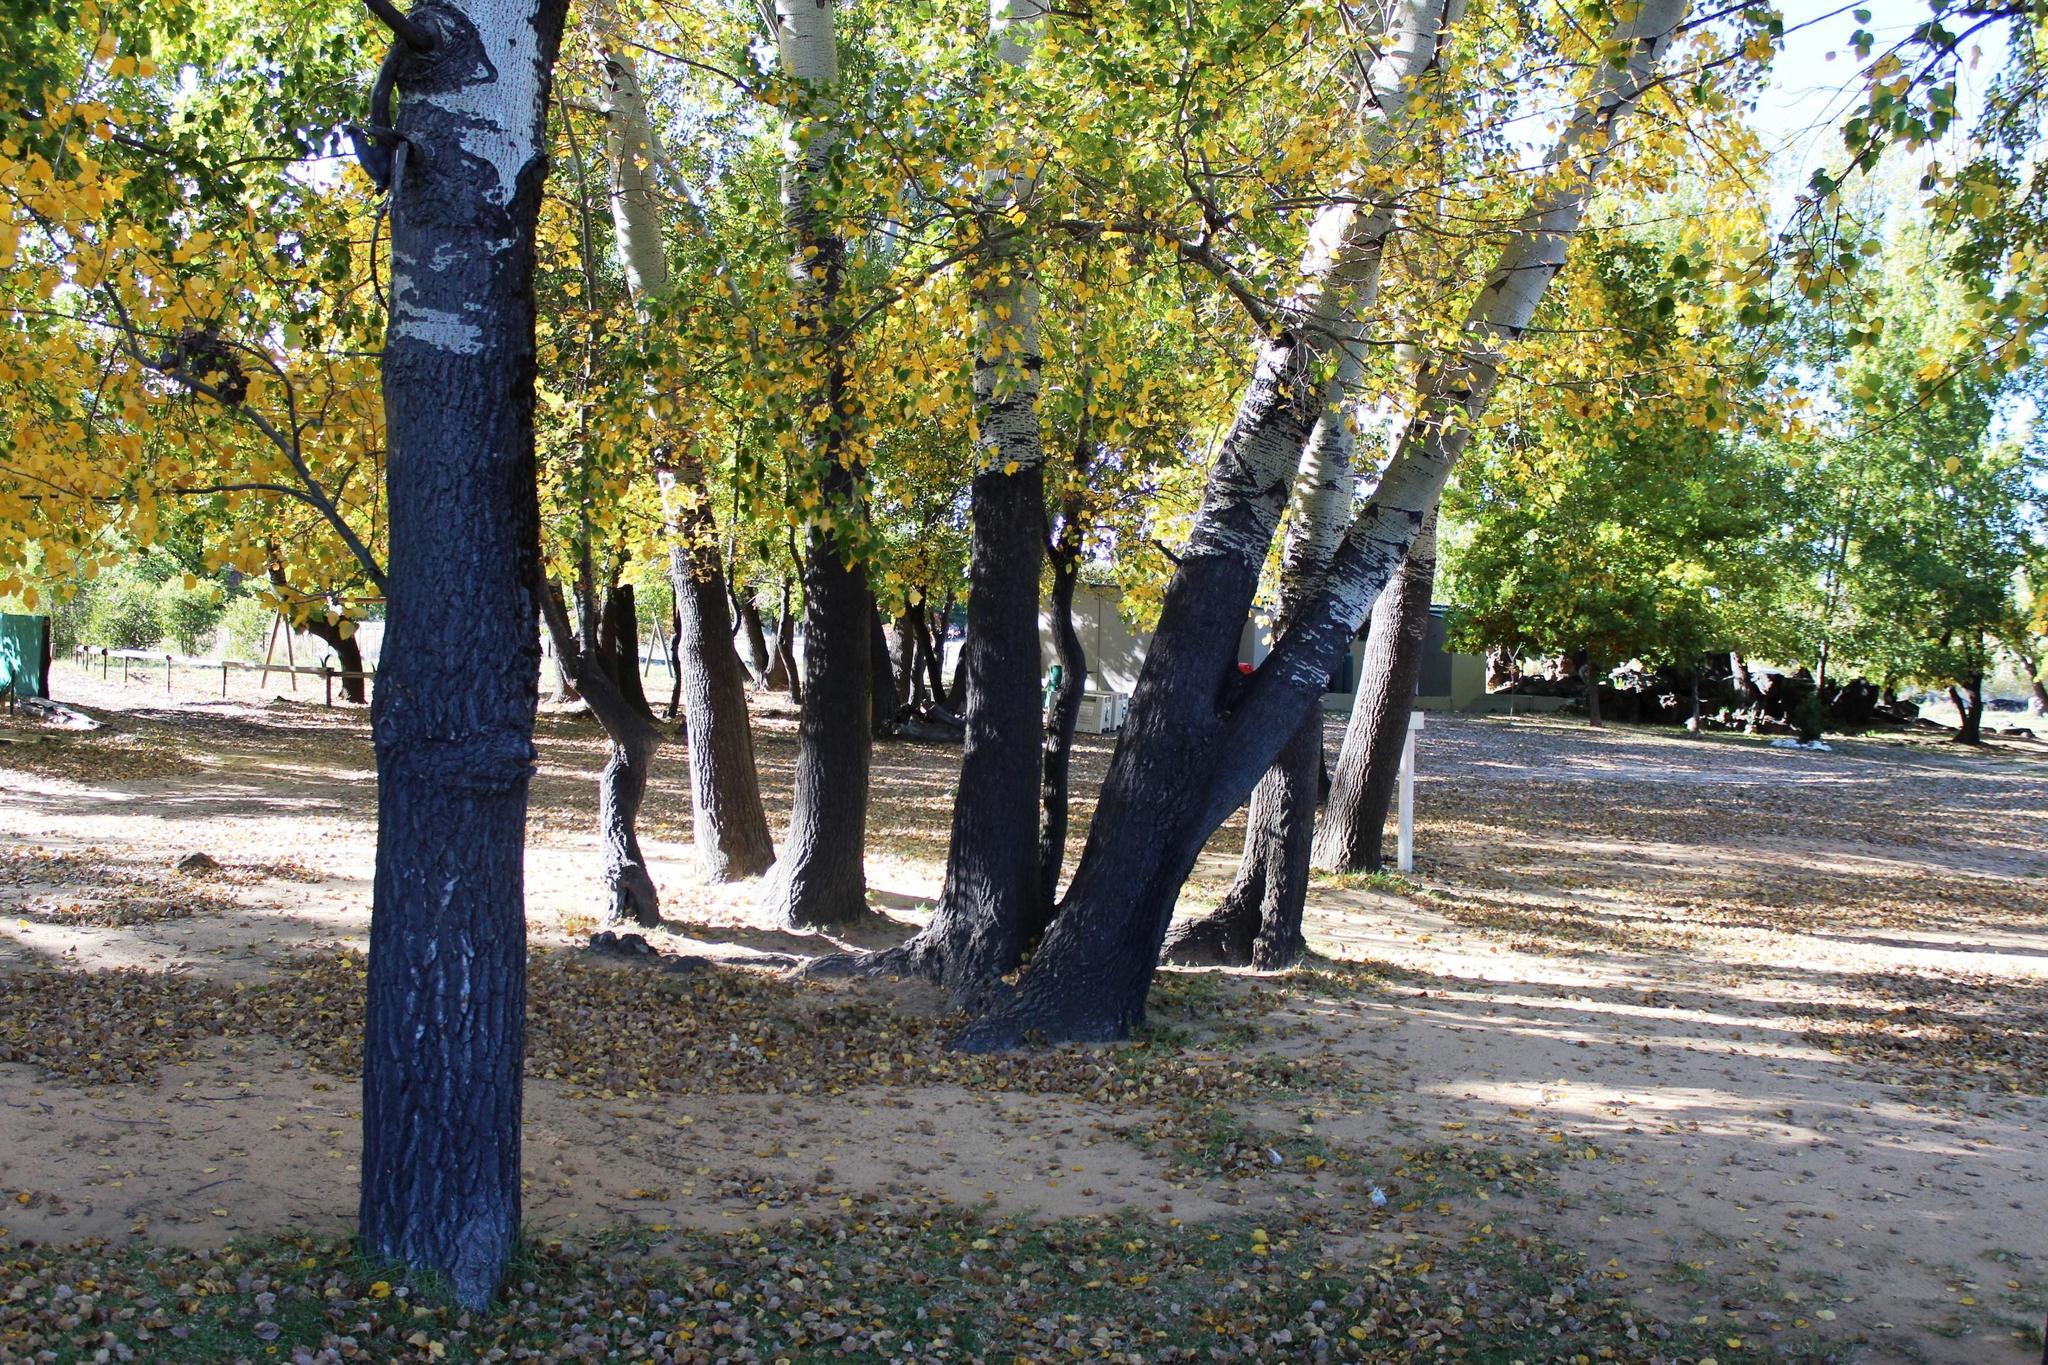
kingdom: Plantae
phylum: Tracheophyta
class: Magnoliopsida
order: Malpighiales
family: Salicaceae
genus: Populus
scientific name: Populus canescens
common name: Gray poplar
